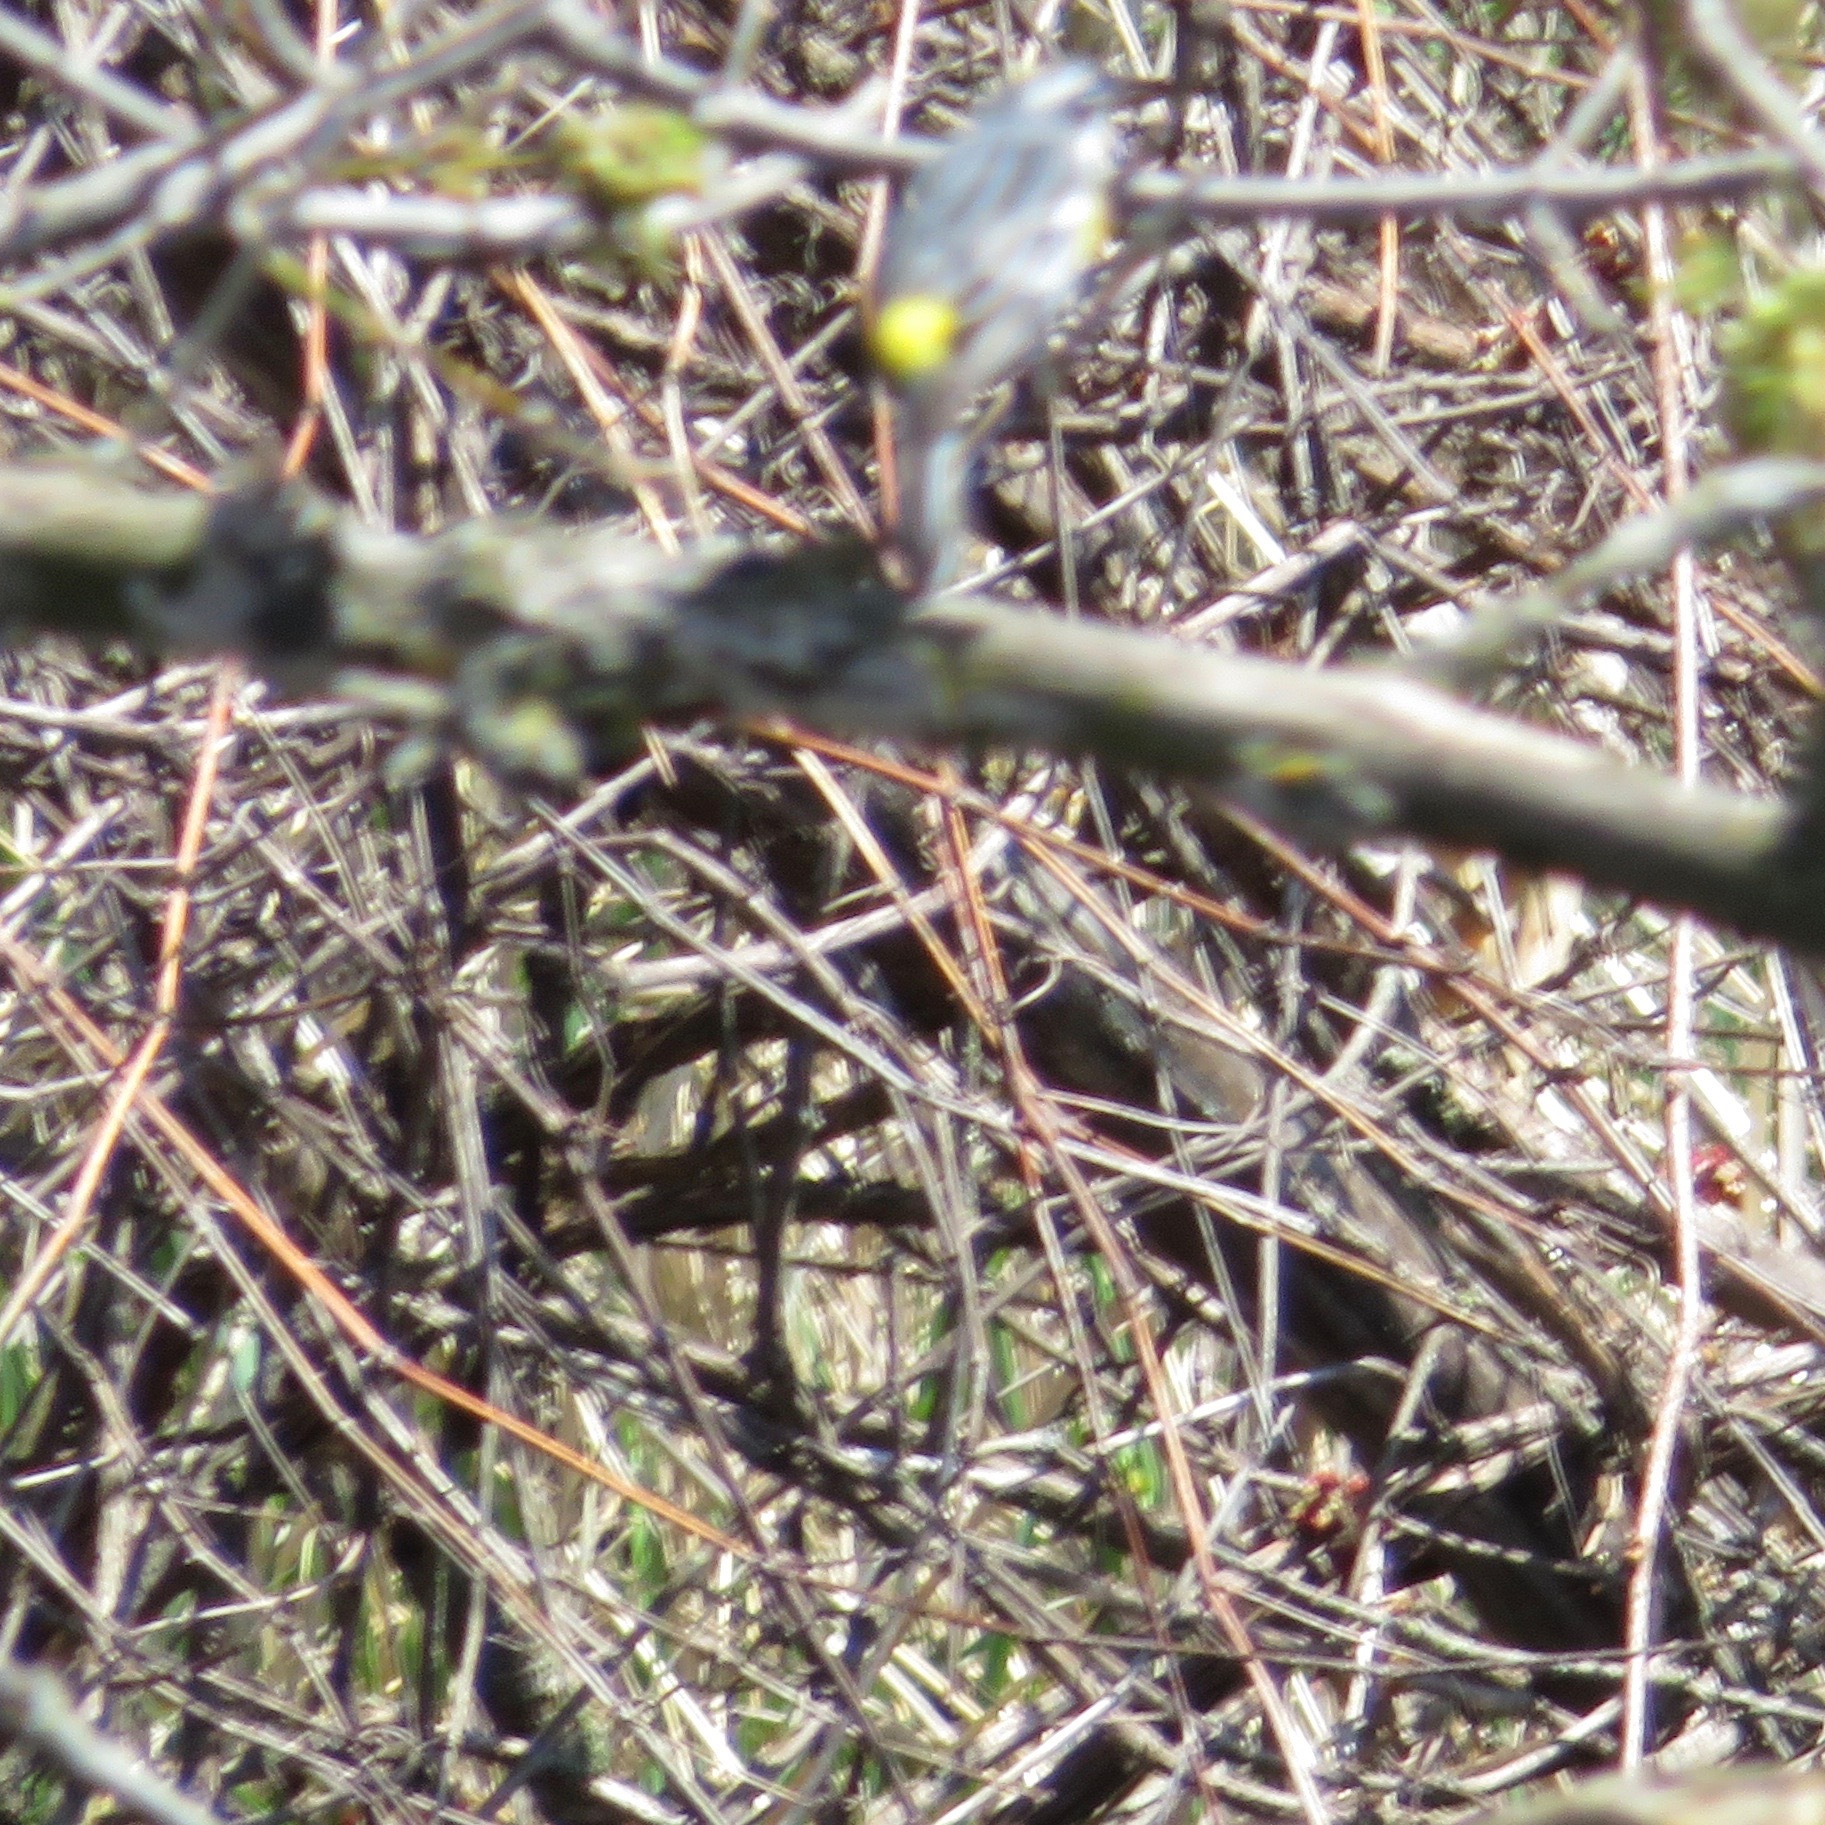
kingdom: Animalia
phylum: Chordata
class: Aves
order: Passeriformes
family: Parulidae
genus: Setophaga
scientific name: Setophaga coronata
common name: Myrtle warbler
